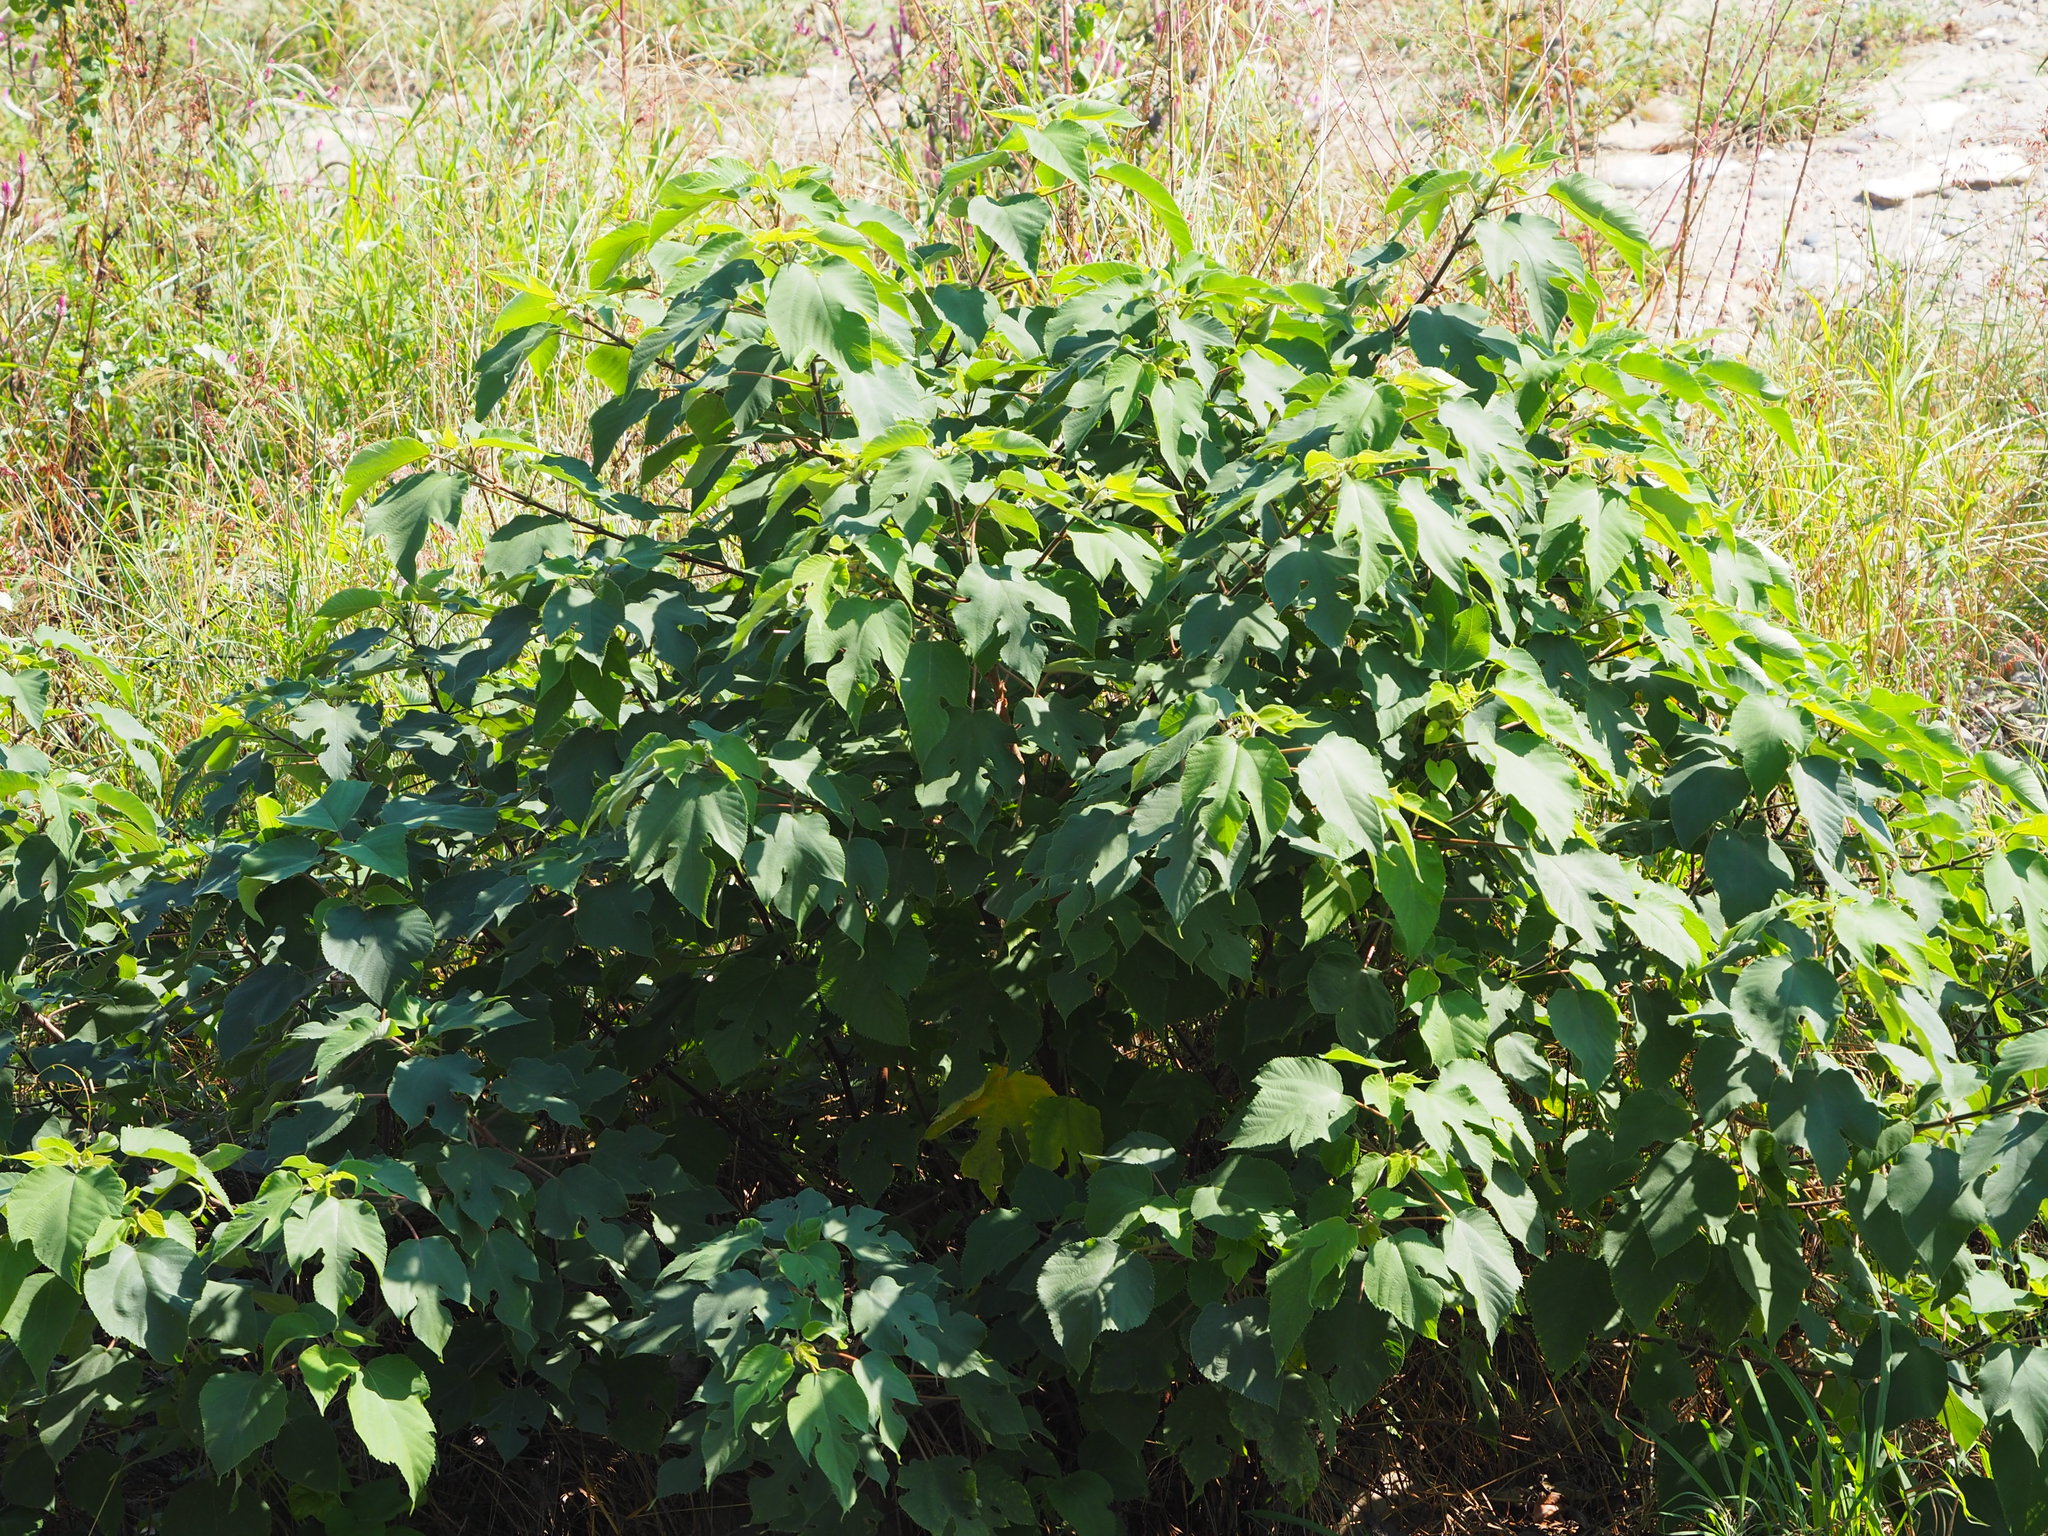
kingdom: Plantae
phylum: Tracheophyta
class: Magnoliopsida
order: Rosales
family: Moraceae
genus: Broussonetia
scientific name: Broussonetia papyrifera
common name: Paper mulberry
